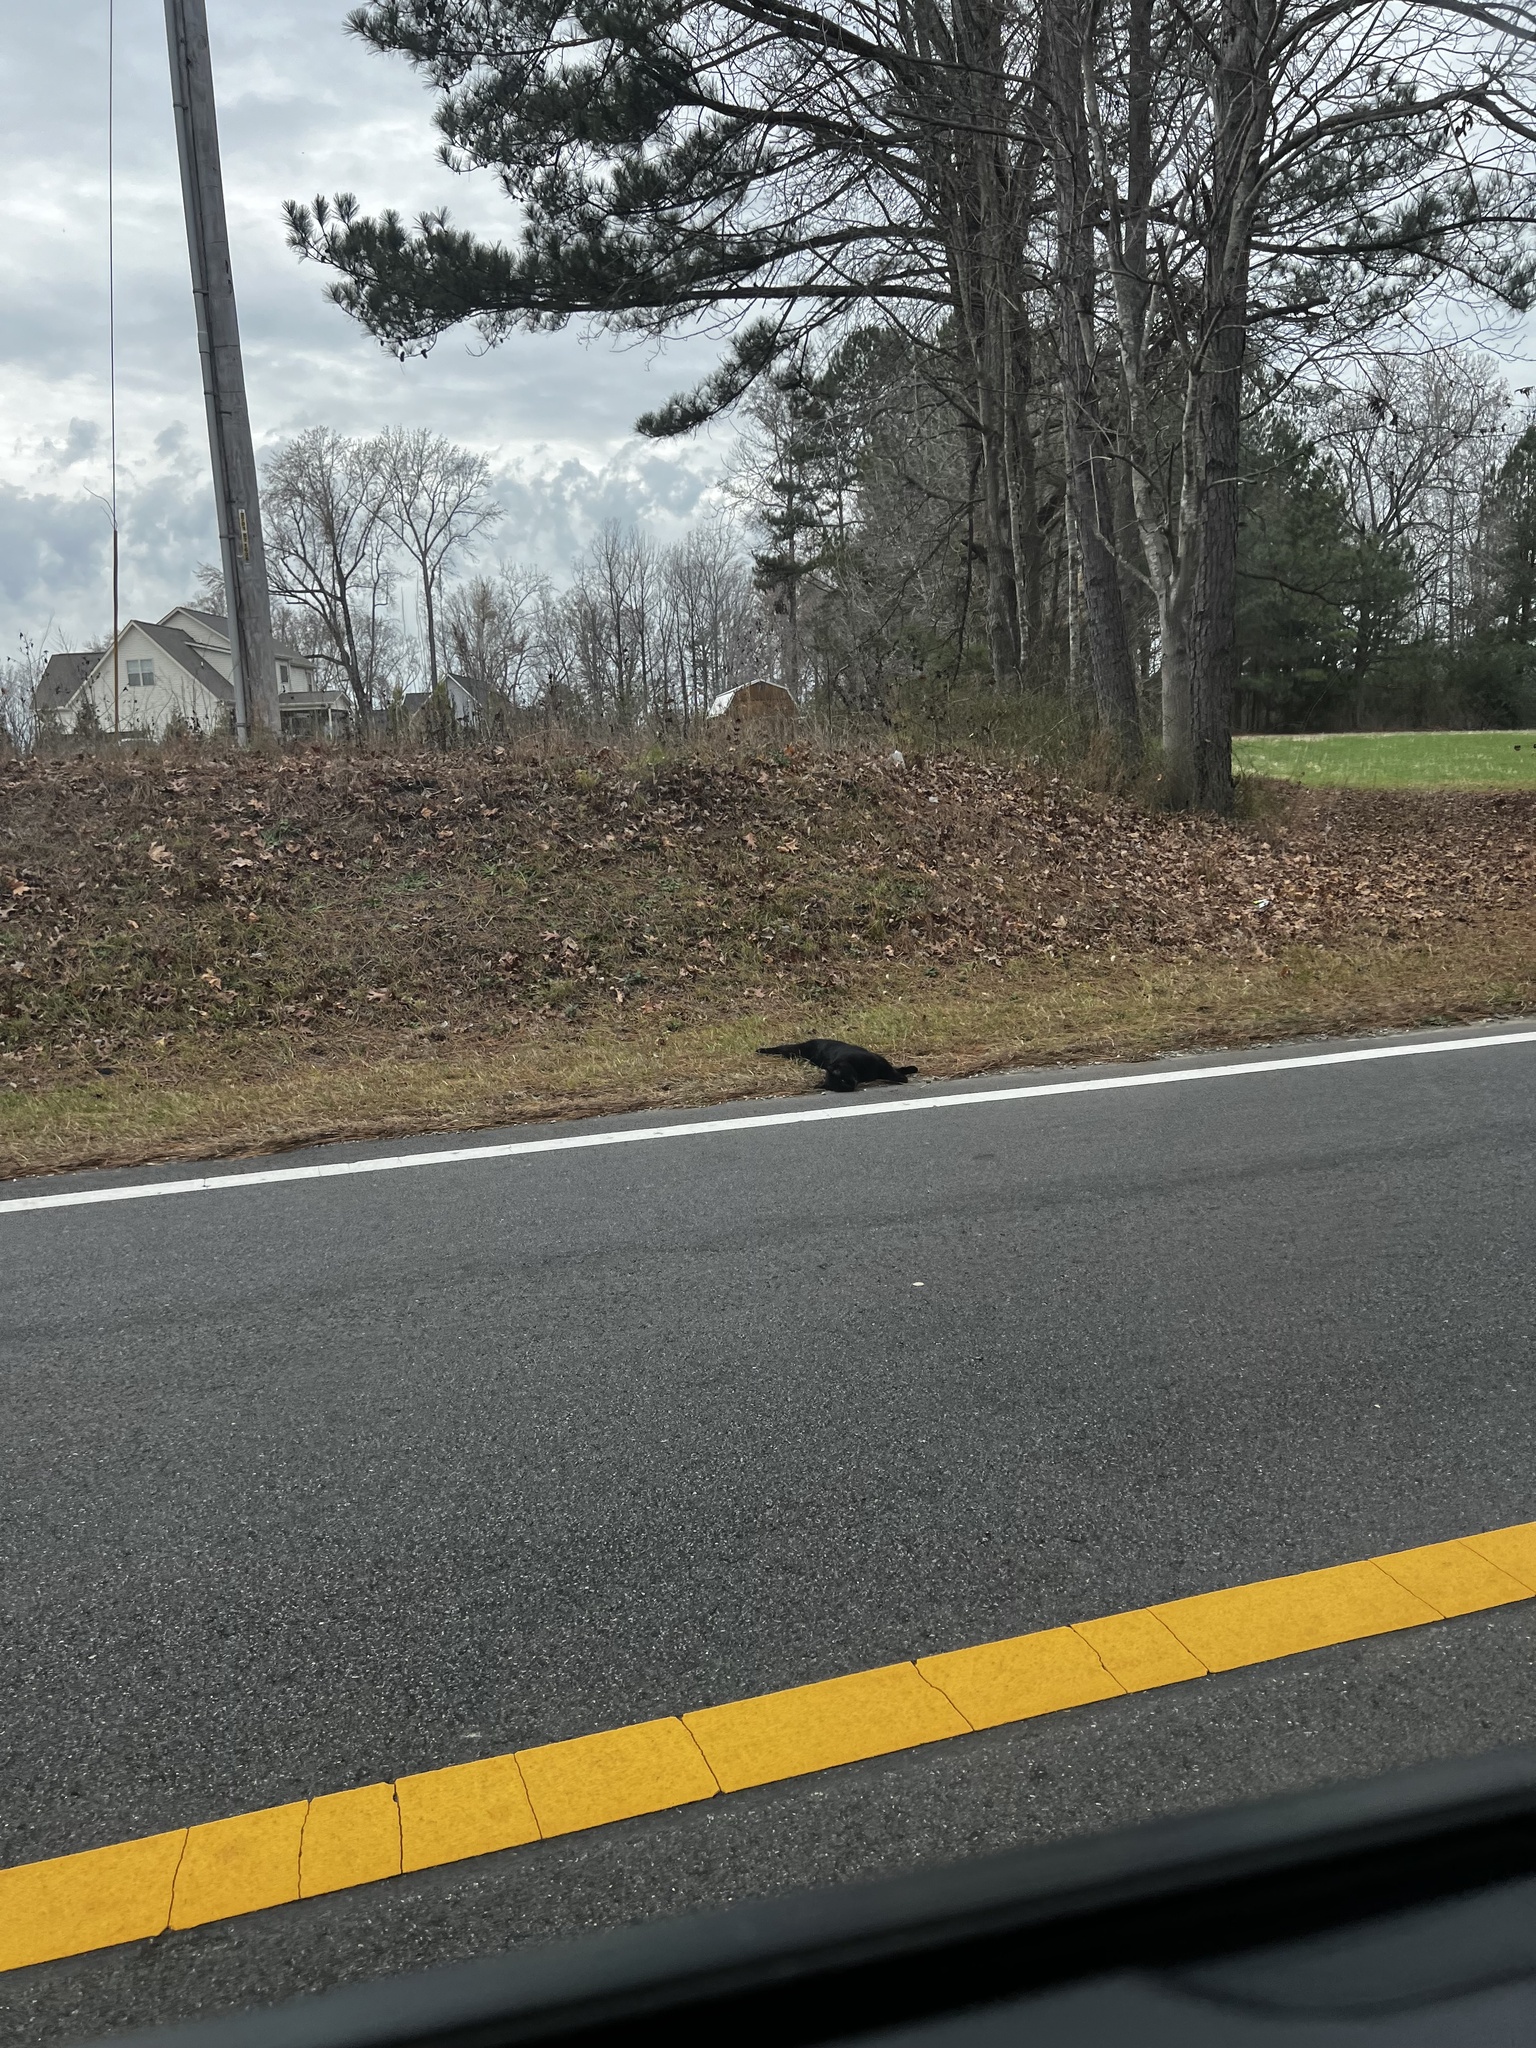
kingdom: Animalia
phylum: Chordata
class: Mammalia
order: Carnivora
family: Felidae
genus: Felis
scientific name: Felis catus
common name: Domestic cat
